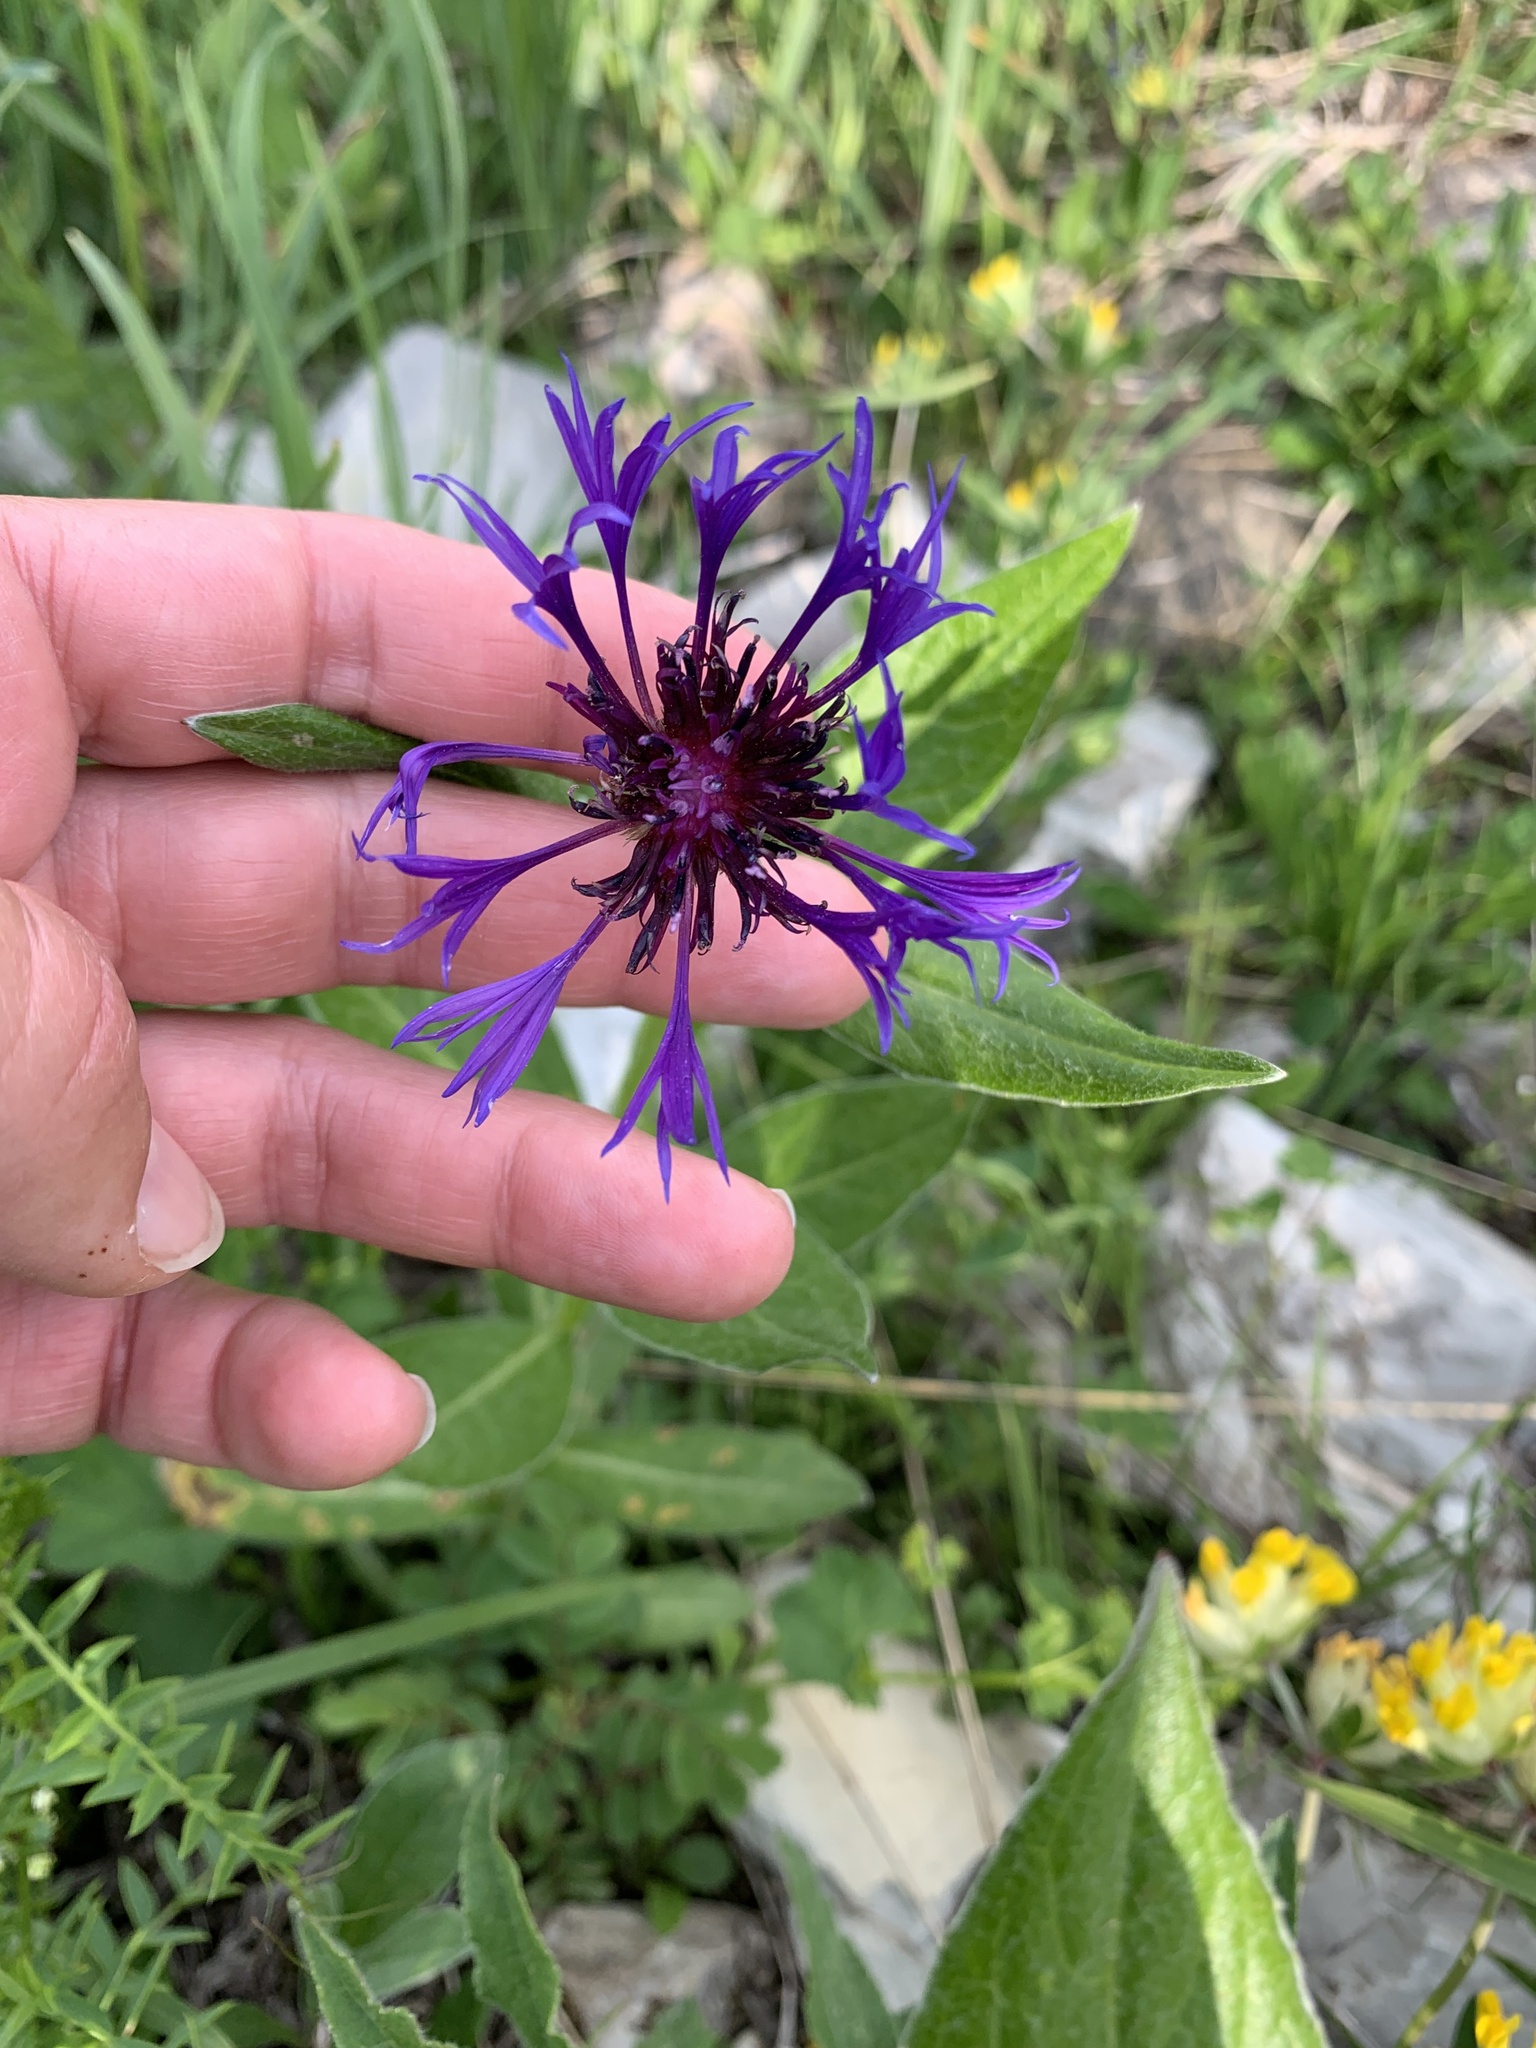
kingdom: Plantae
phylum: Tracheophyta
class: Magnoliopsida
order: Asterales
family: Asteraceae
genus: Centaurea
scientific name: Centaurea montana
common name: Perennial cornflower
